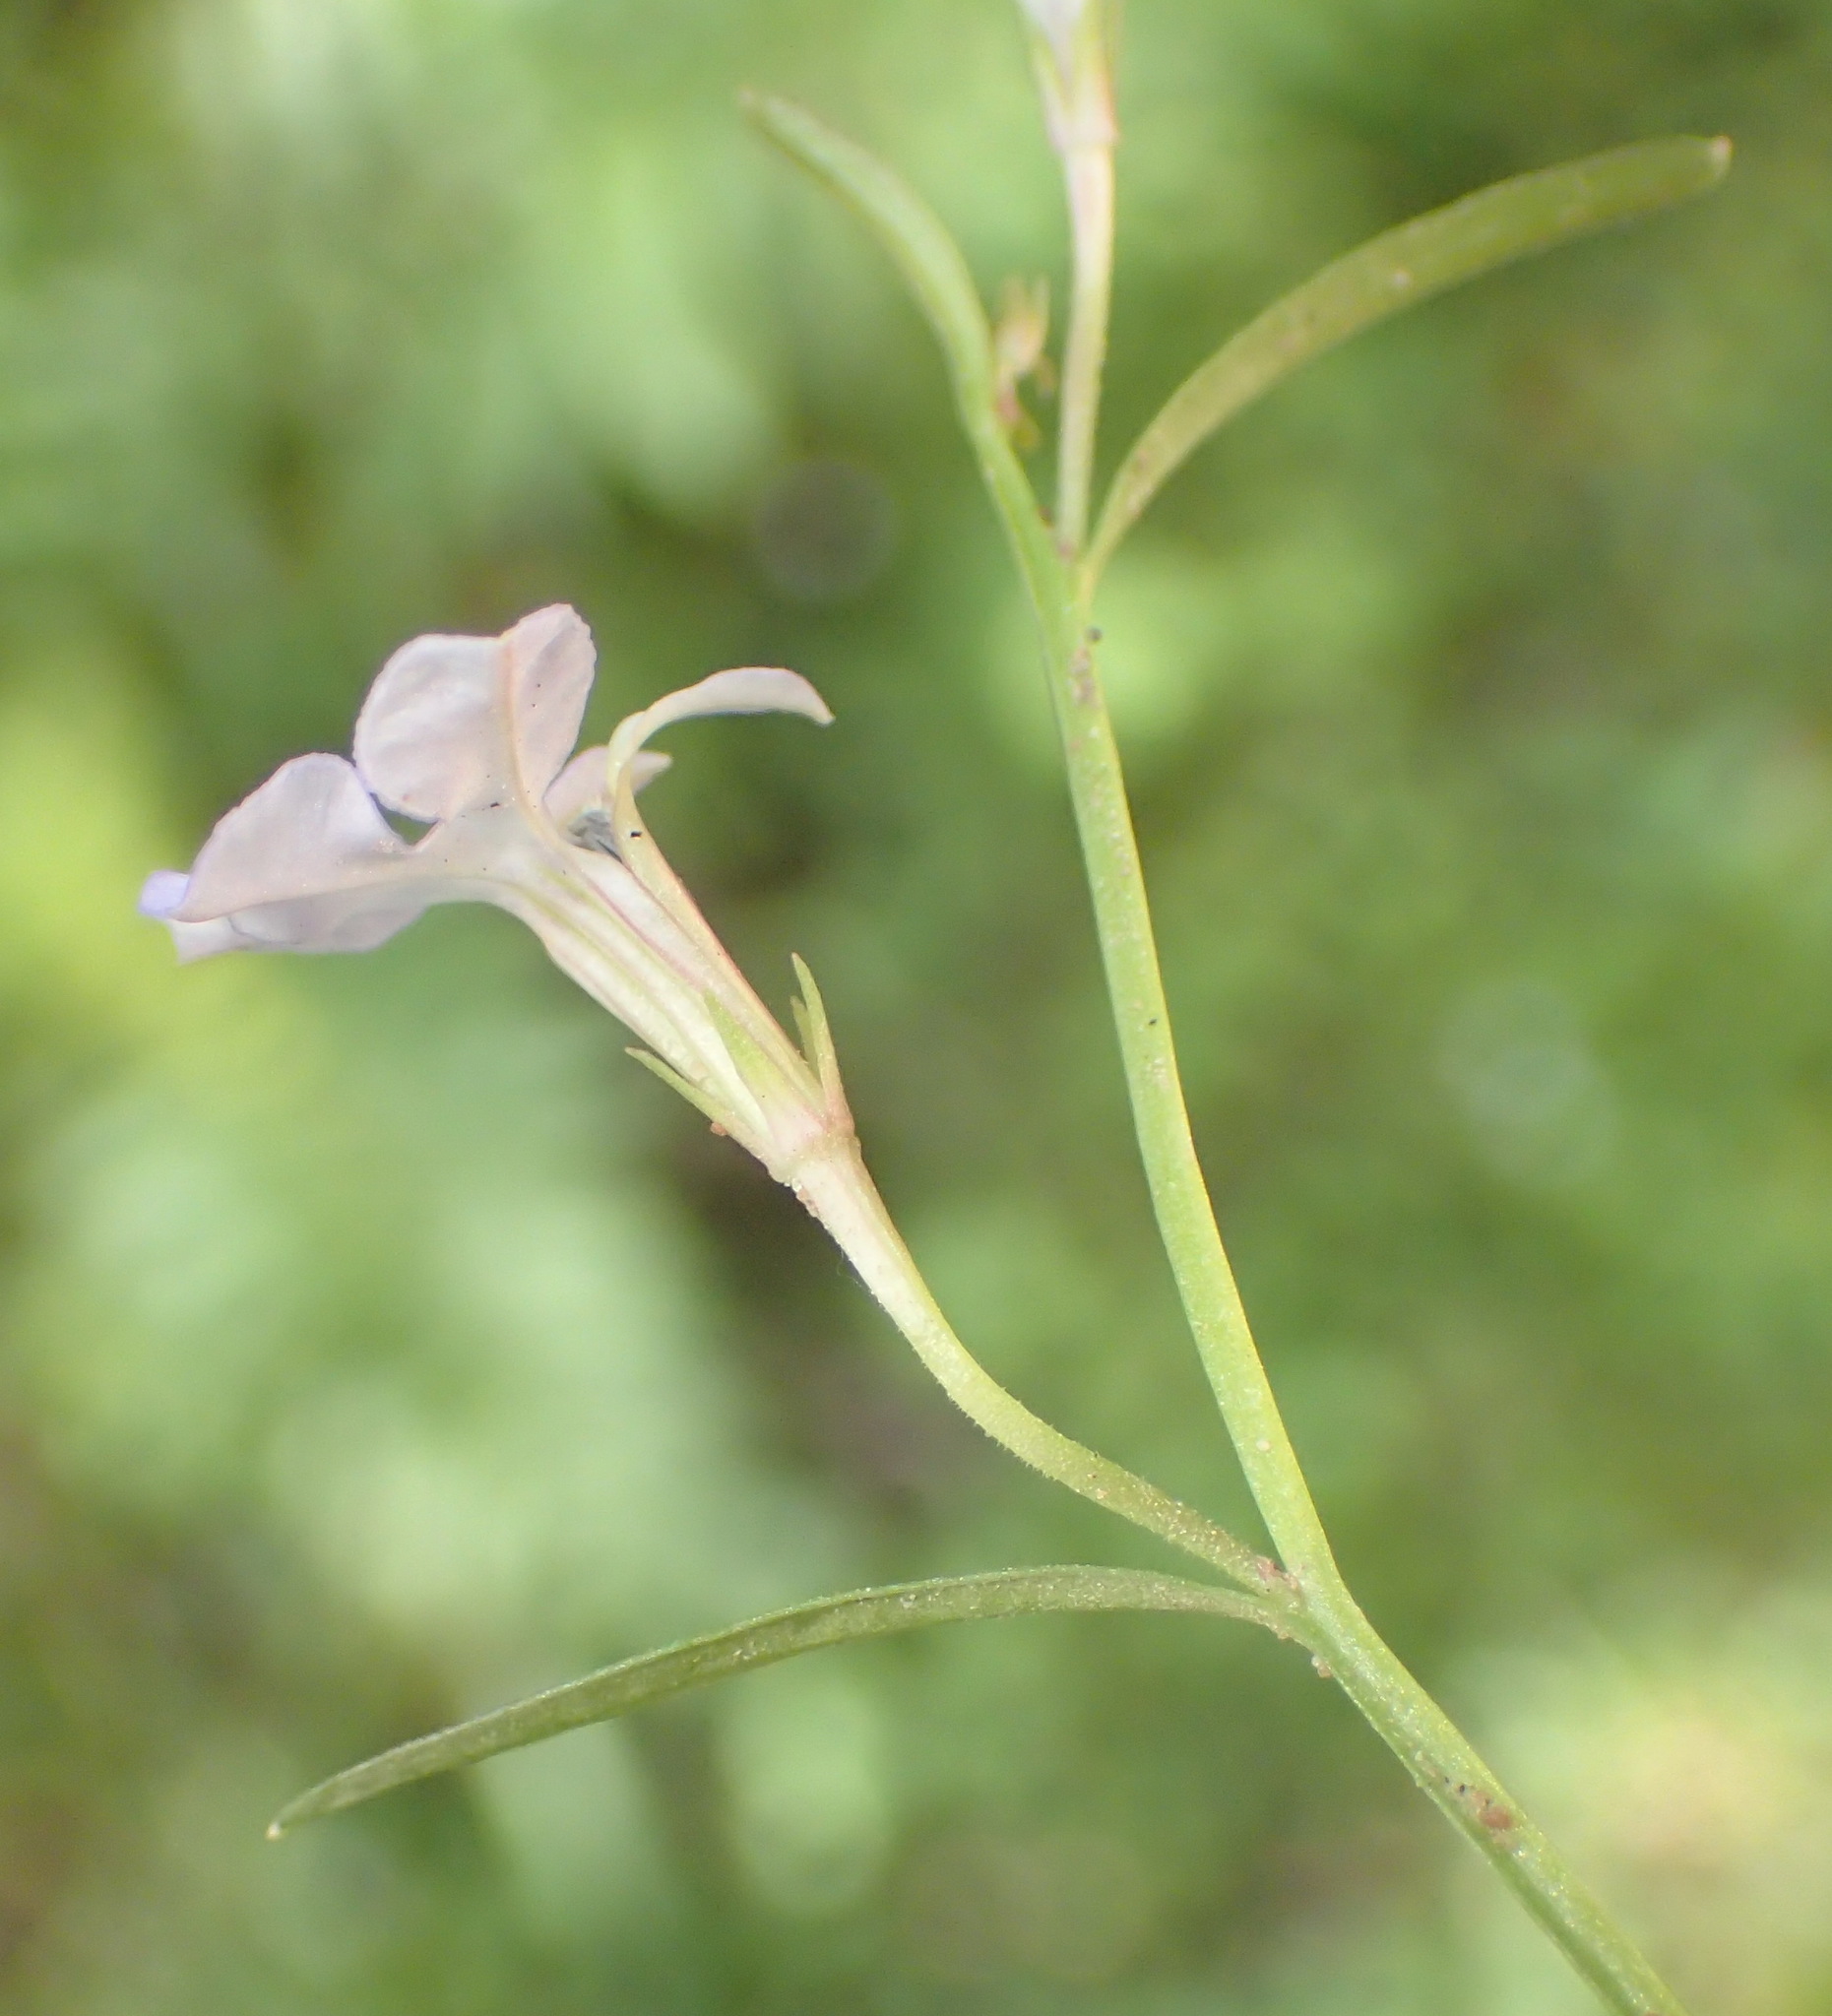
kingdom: Plantae
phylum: Tracheophyta
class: Magnoliopsida
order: Asterales
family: Campanulaceae
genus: Lobelia
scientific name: Lobelia anceps
